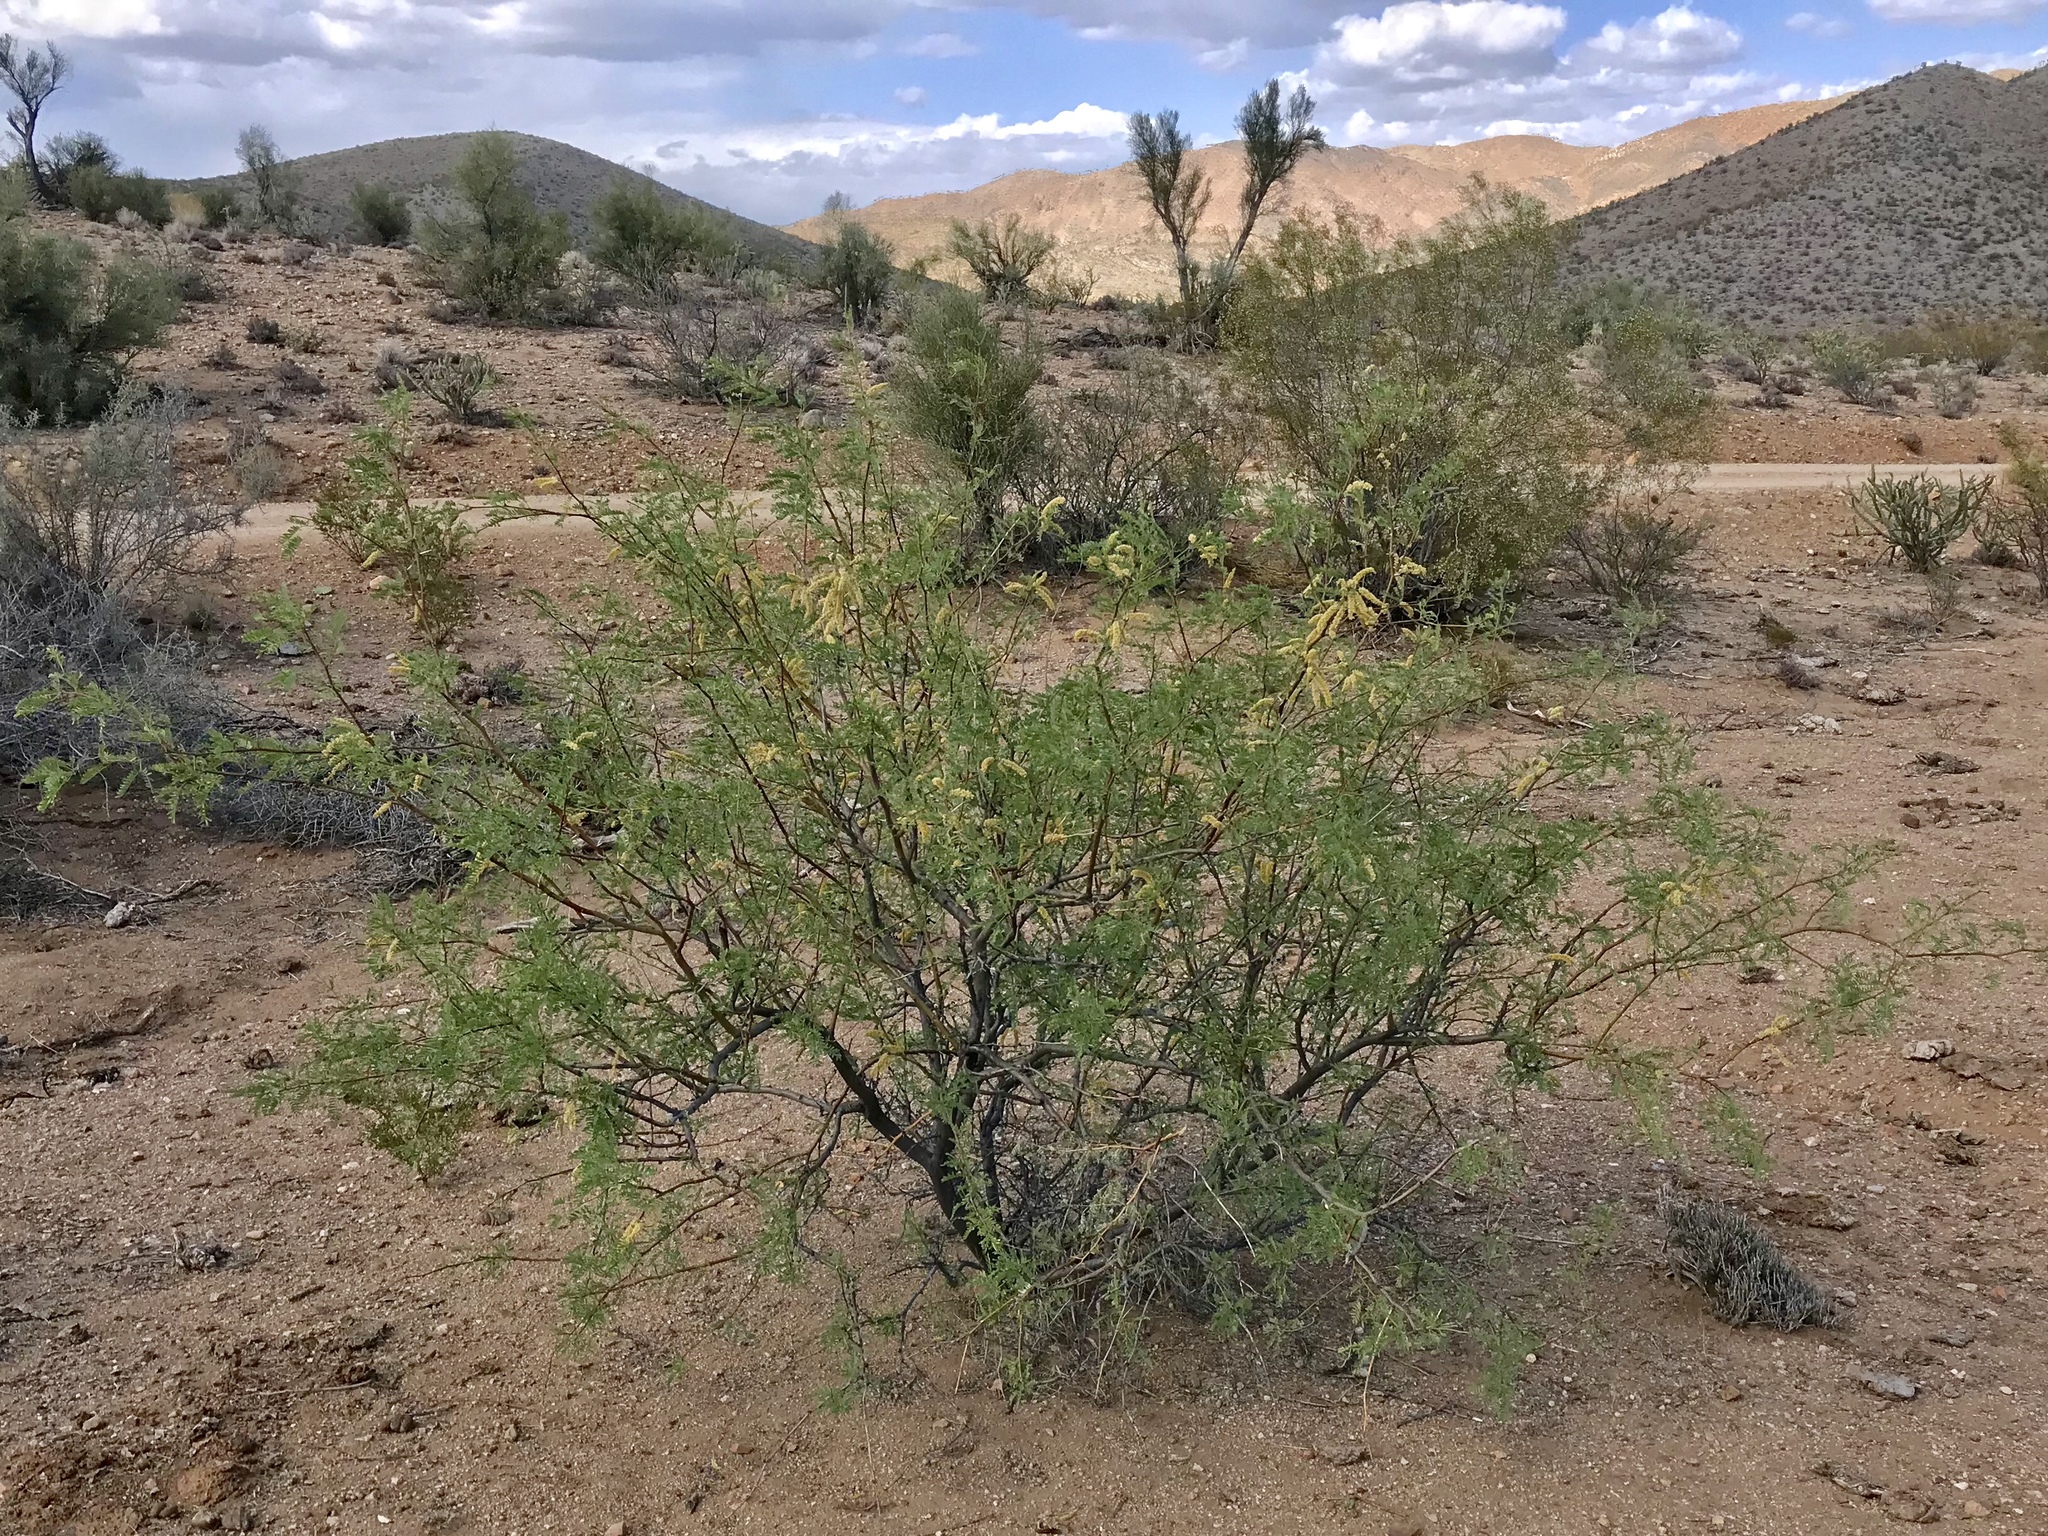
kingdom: Plantae
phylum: Tracheophyta
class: Magnoliopsida
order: Fabales
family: Fabaceae
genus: Prosopis
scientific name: Prosopis glandulosa
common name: Honey mesquite
